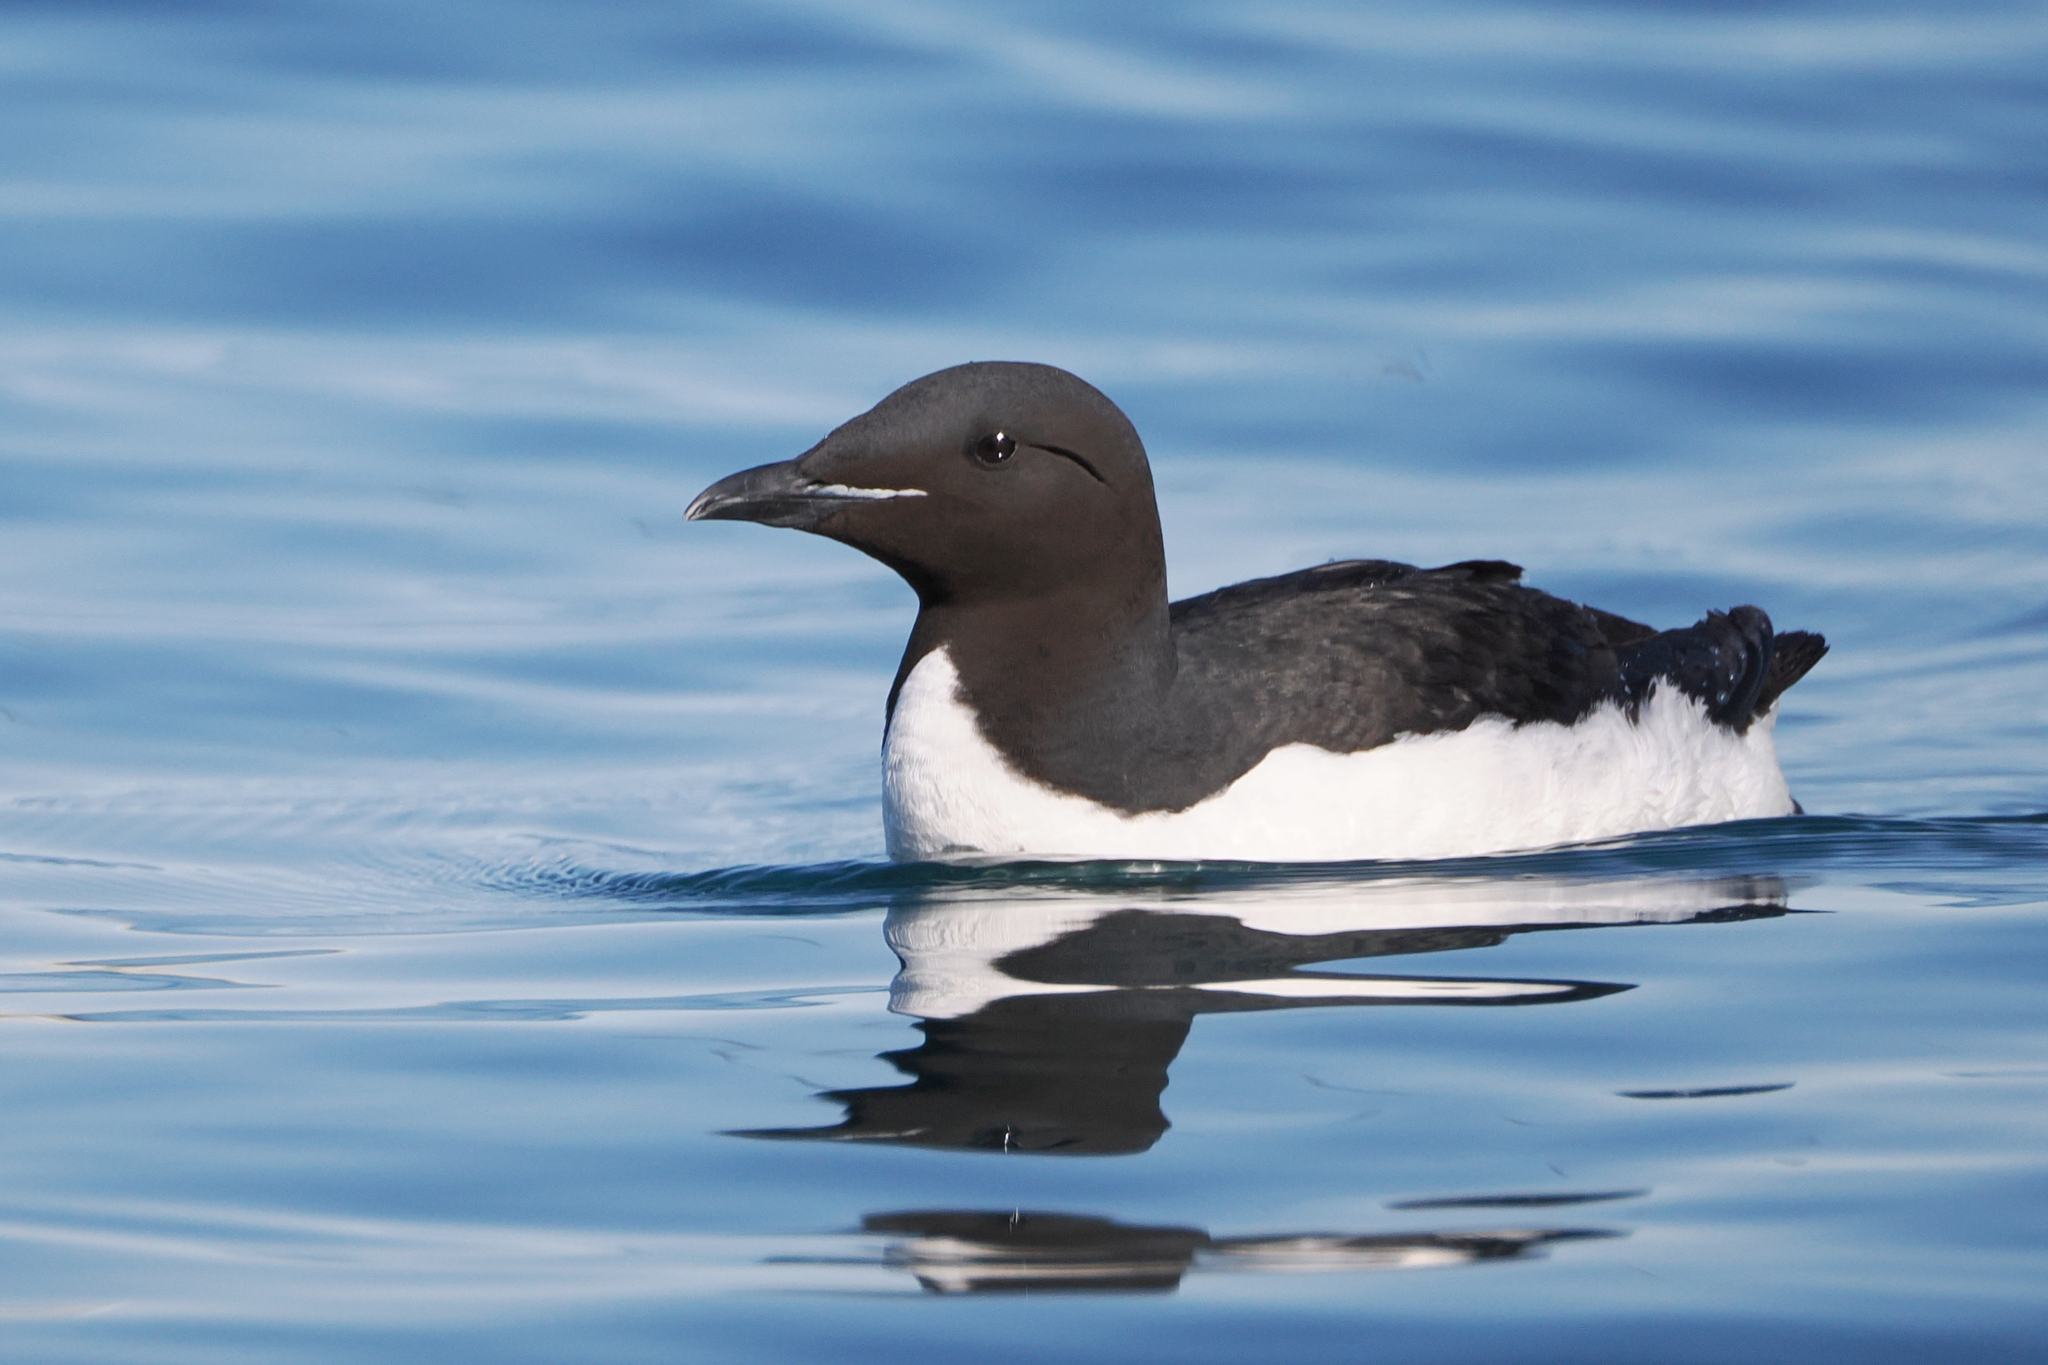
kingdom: Animalia
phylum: Chordata
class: Aves
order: Charadriiformes
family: Alcidae
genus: Uria
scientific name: Uria lomvia
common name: Thick-billed murre
